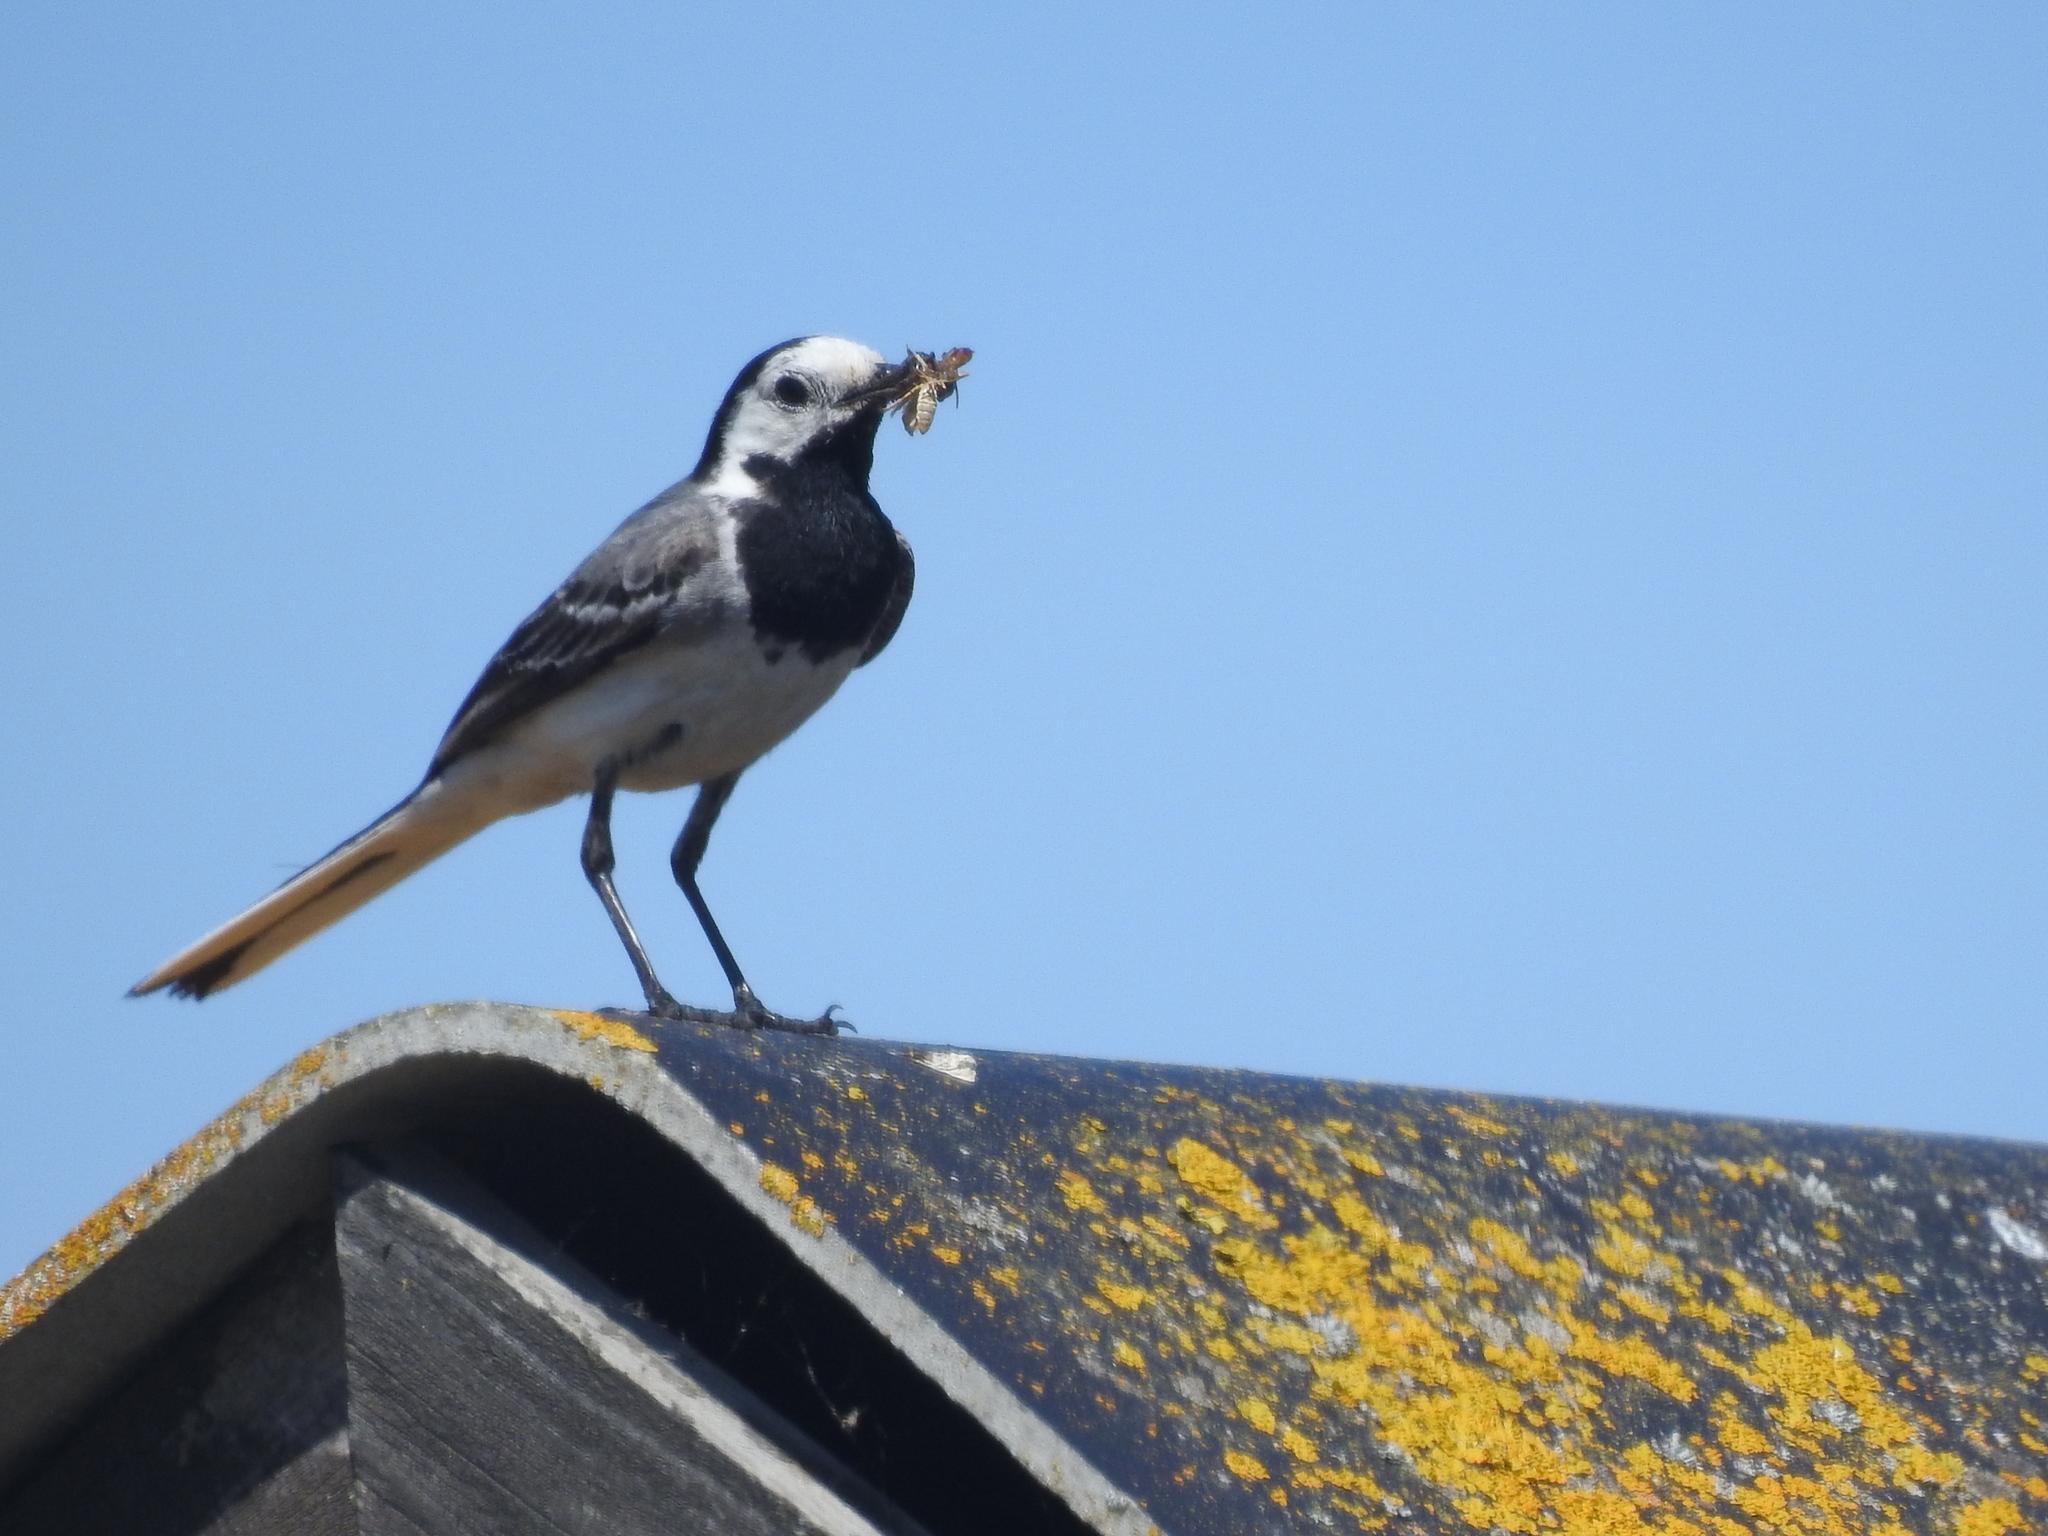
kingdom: Animalia
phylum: Chordata
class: Aves
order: Passeriformes
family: Motacillidae
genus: Motacilla
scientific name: Motacilla alba
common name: White wagtail
